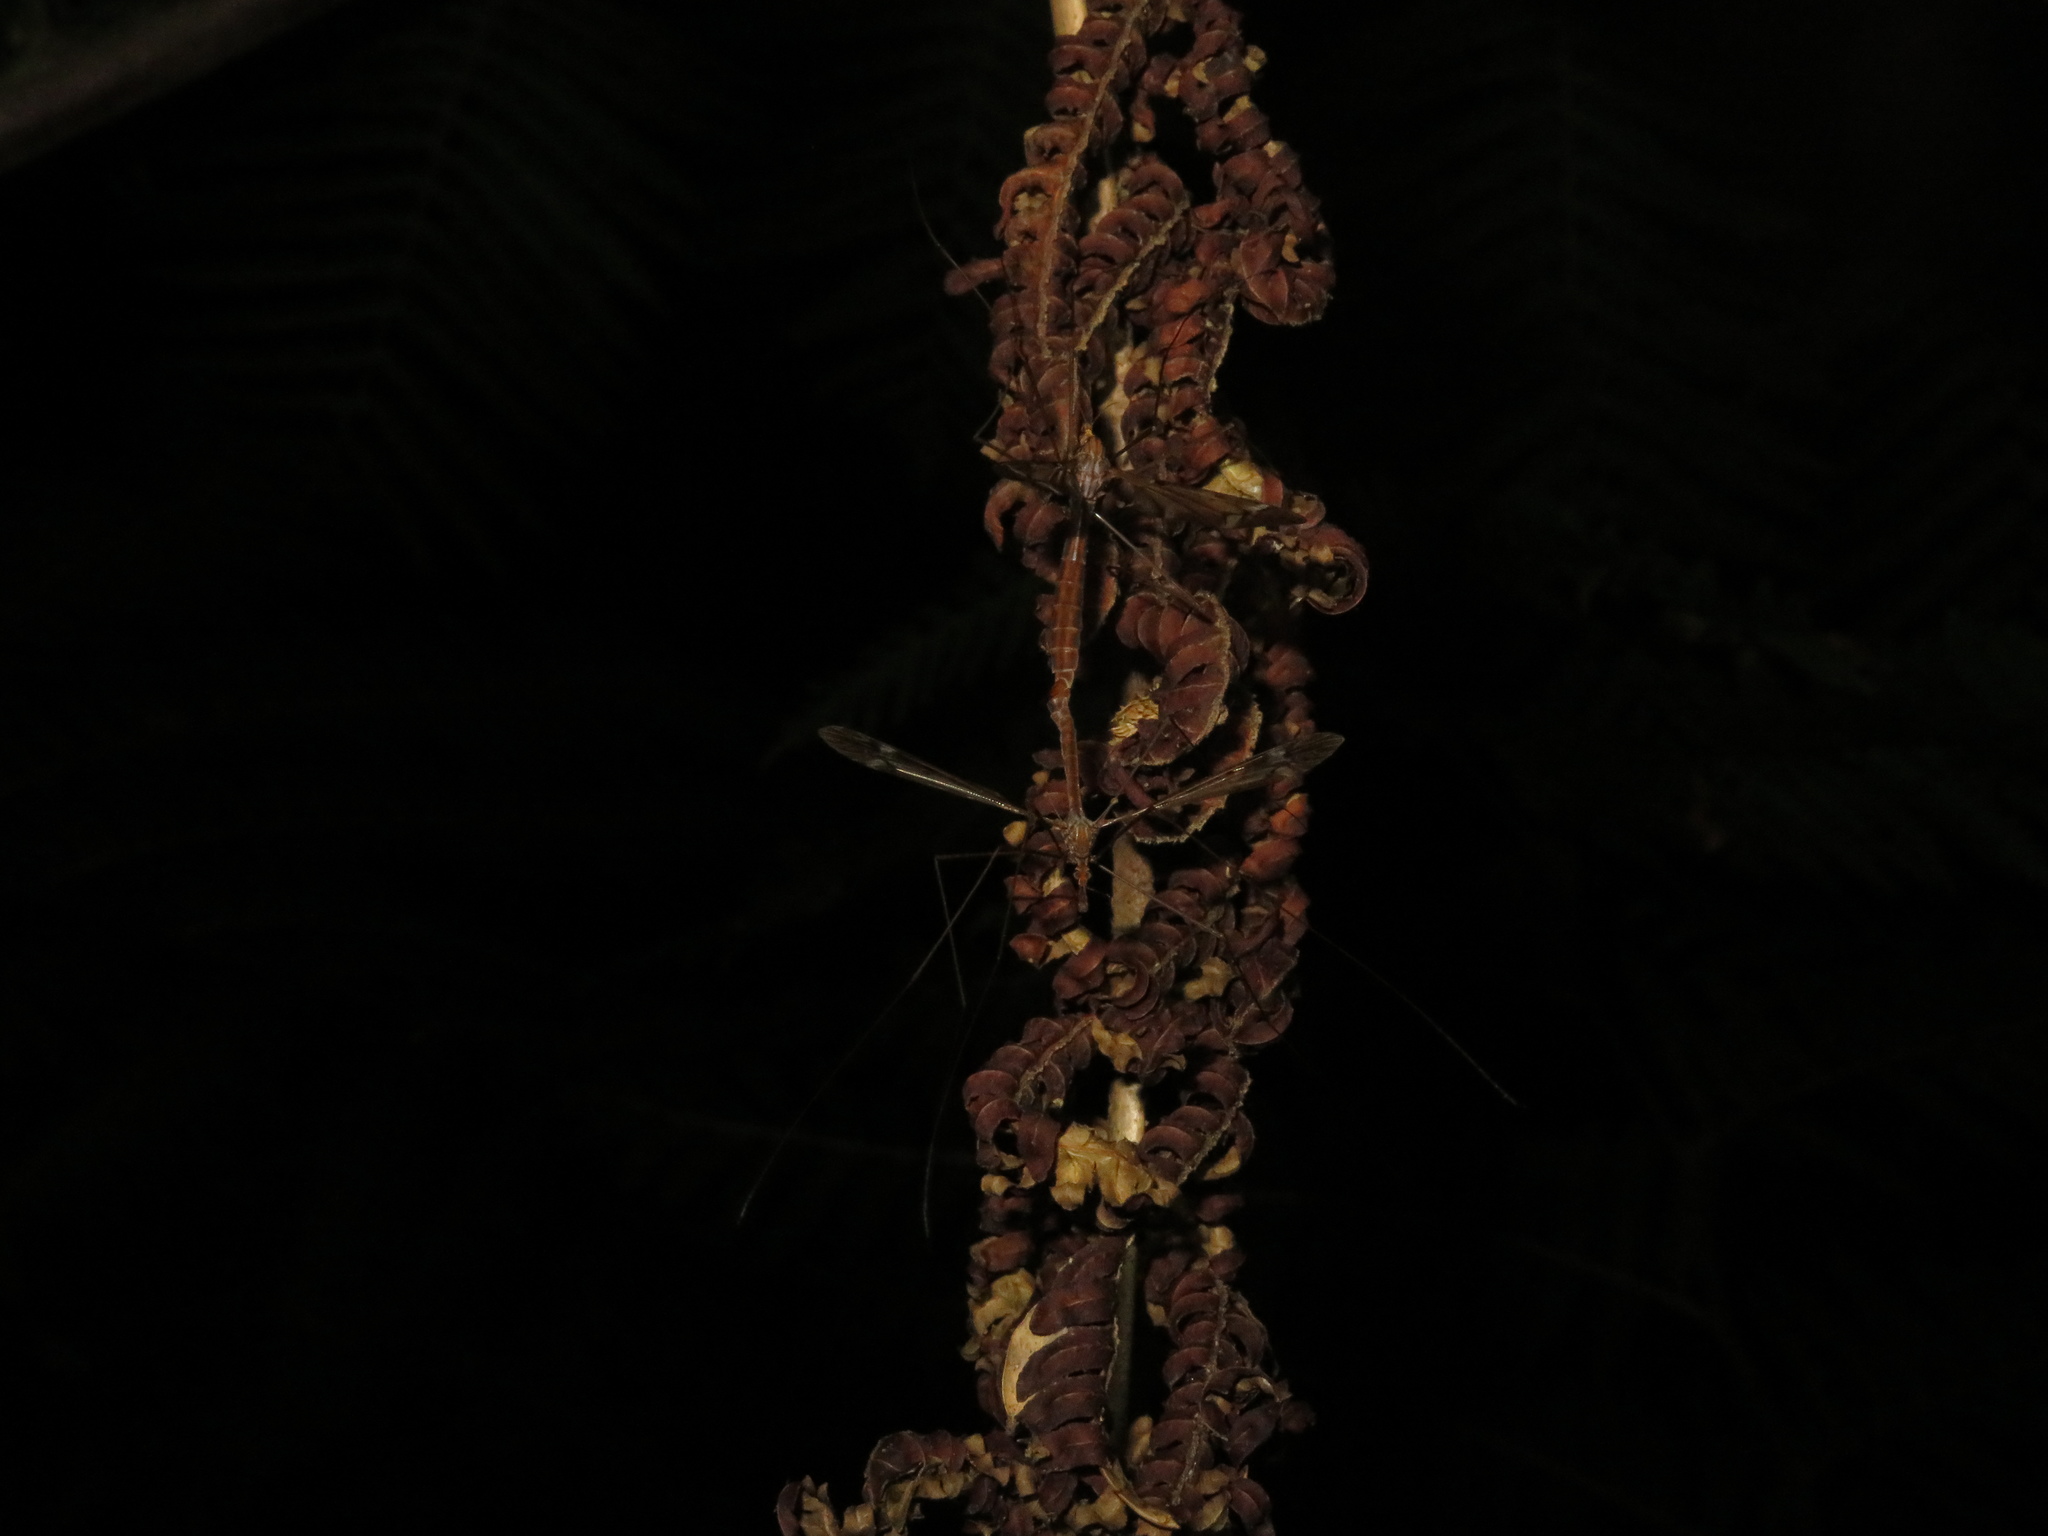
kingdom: Animalia
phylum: Arthropoda
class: Insecta
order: Diptera
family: Tipulidae
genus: Zelandotipula
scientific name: Zelandotipula fulva
